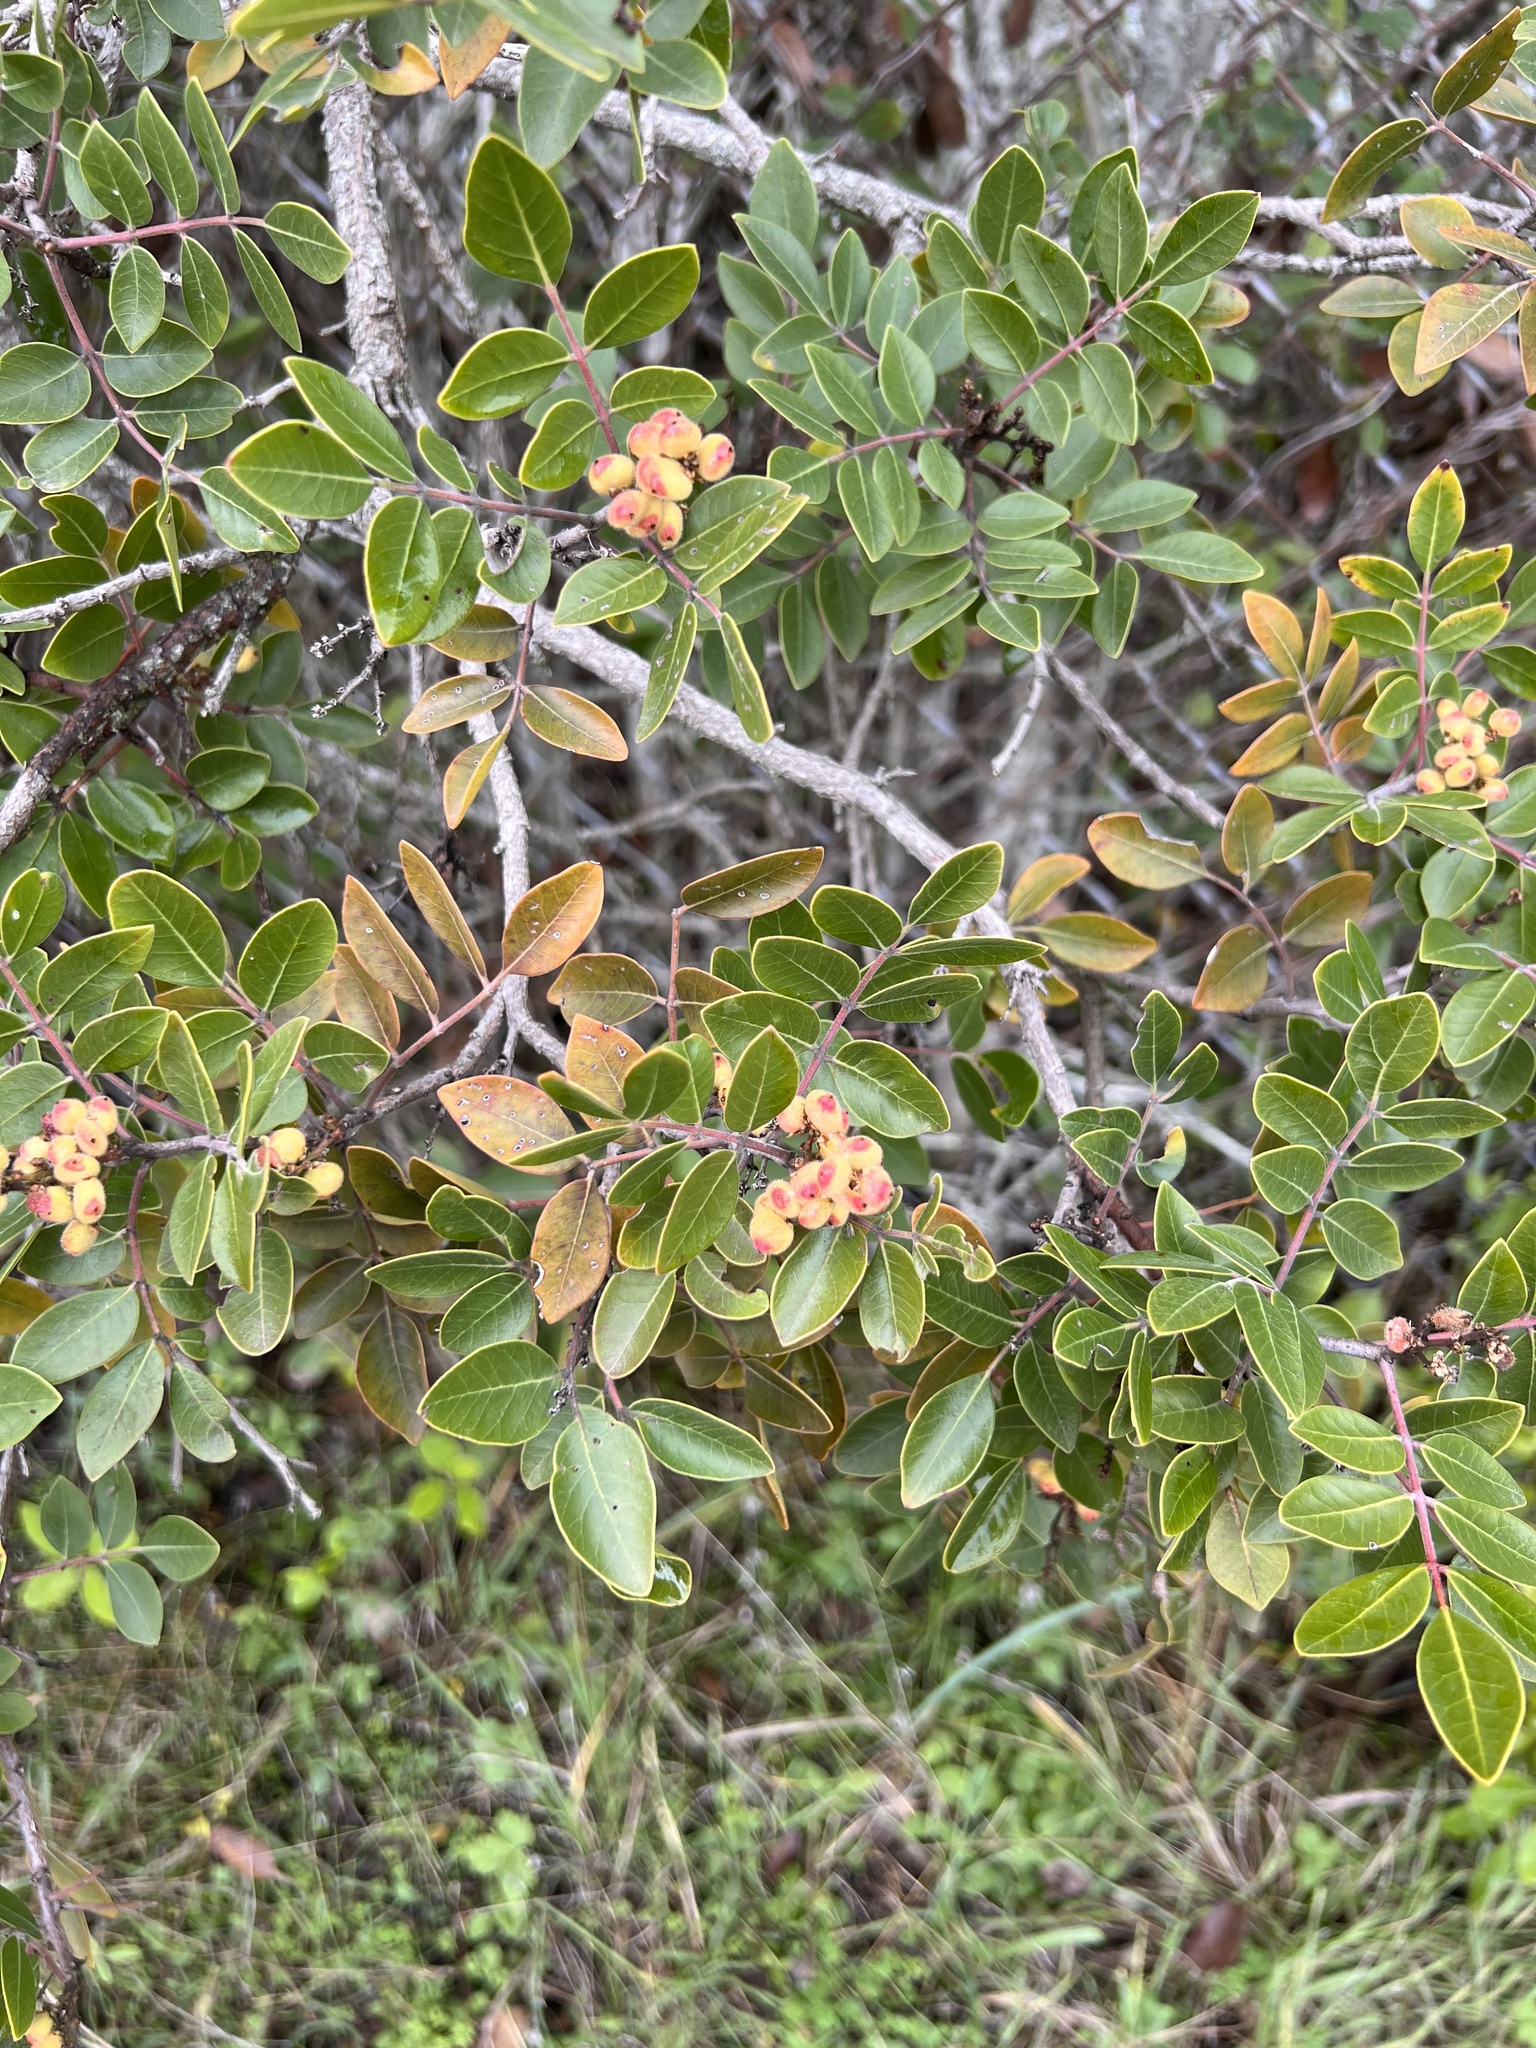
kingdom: Plantae
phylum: Tracheophyta
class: Magnoliopsida
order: Sapindales
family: Anacardiaceae
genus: Rhus
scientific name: Rhus virens
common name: Evergreen sumac
